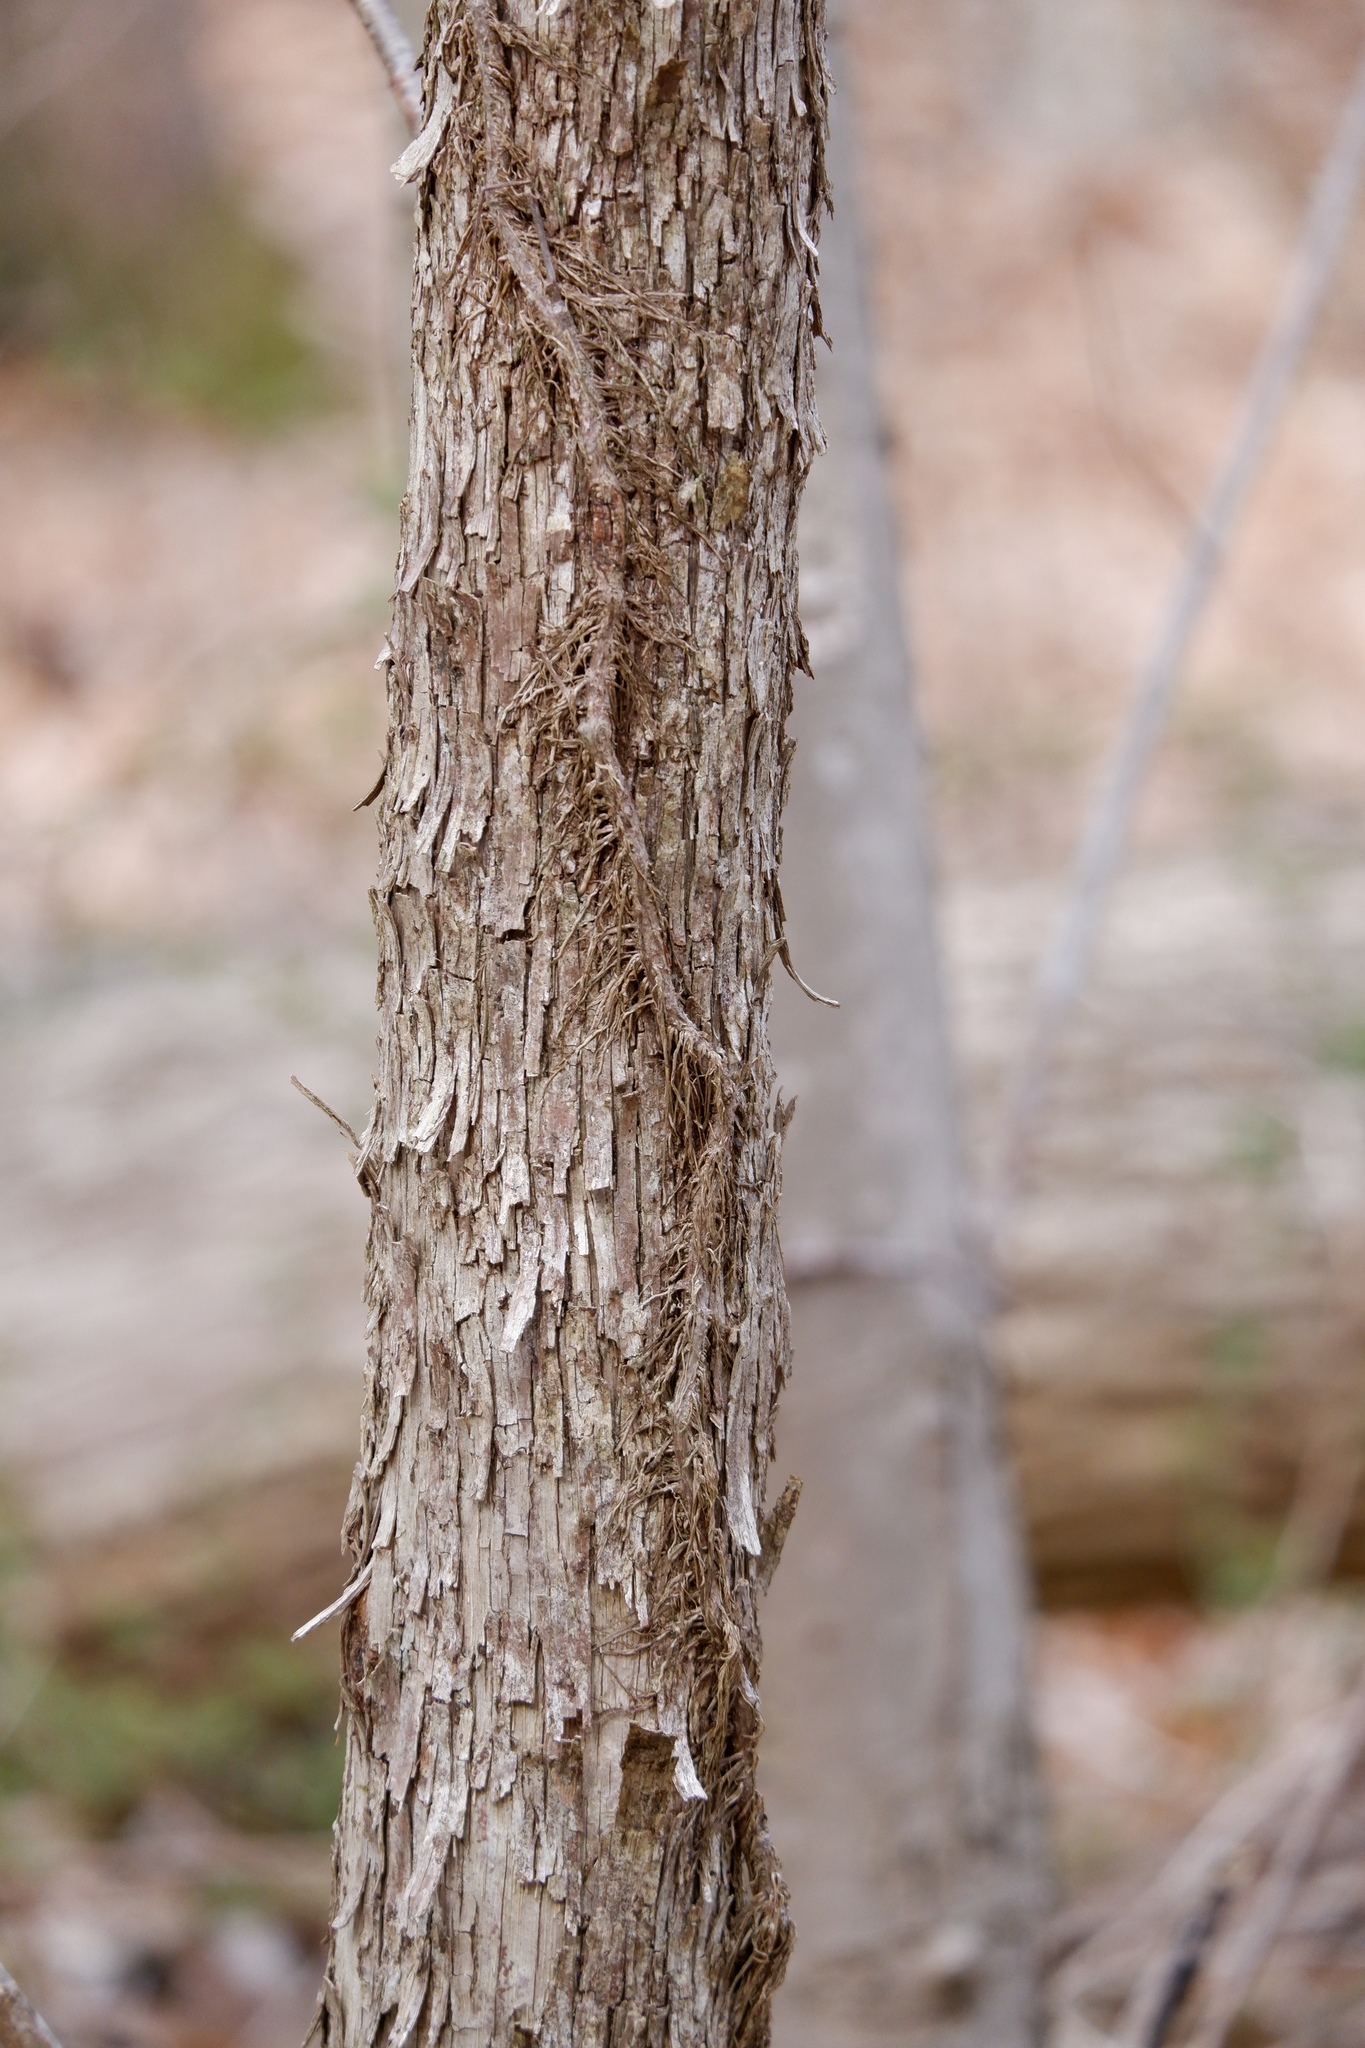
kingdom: Plantae
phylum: Tracheophyta
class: Magnoliopsida
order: Fagales
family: Betulaceae
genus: Ostrya
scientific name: Ostrya virginiana
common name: Ironwood
